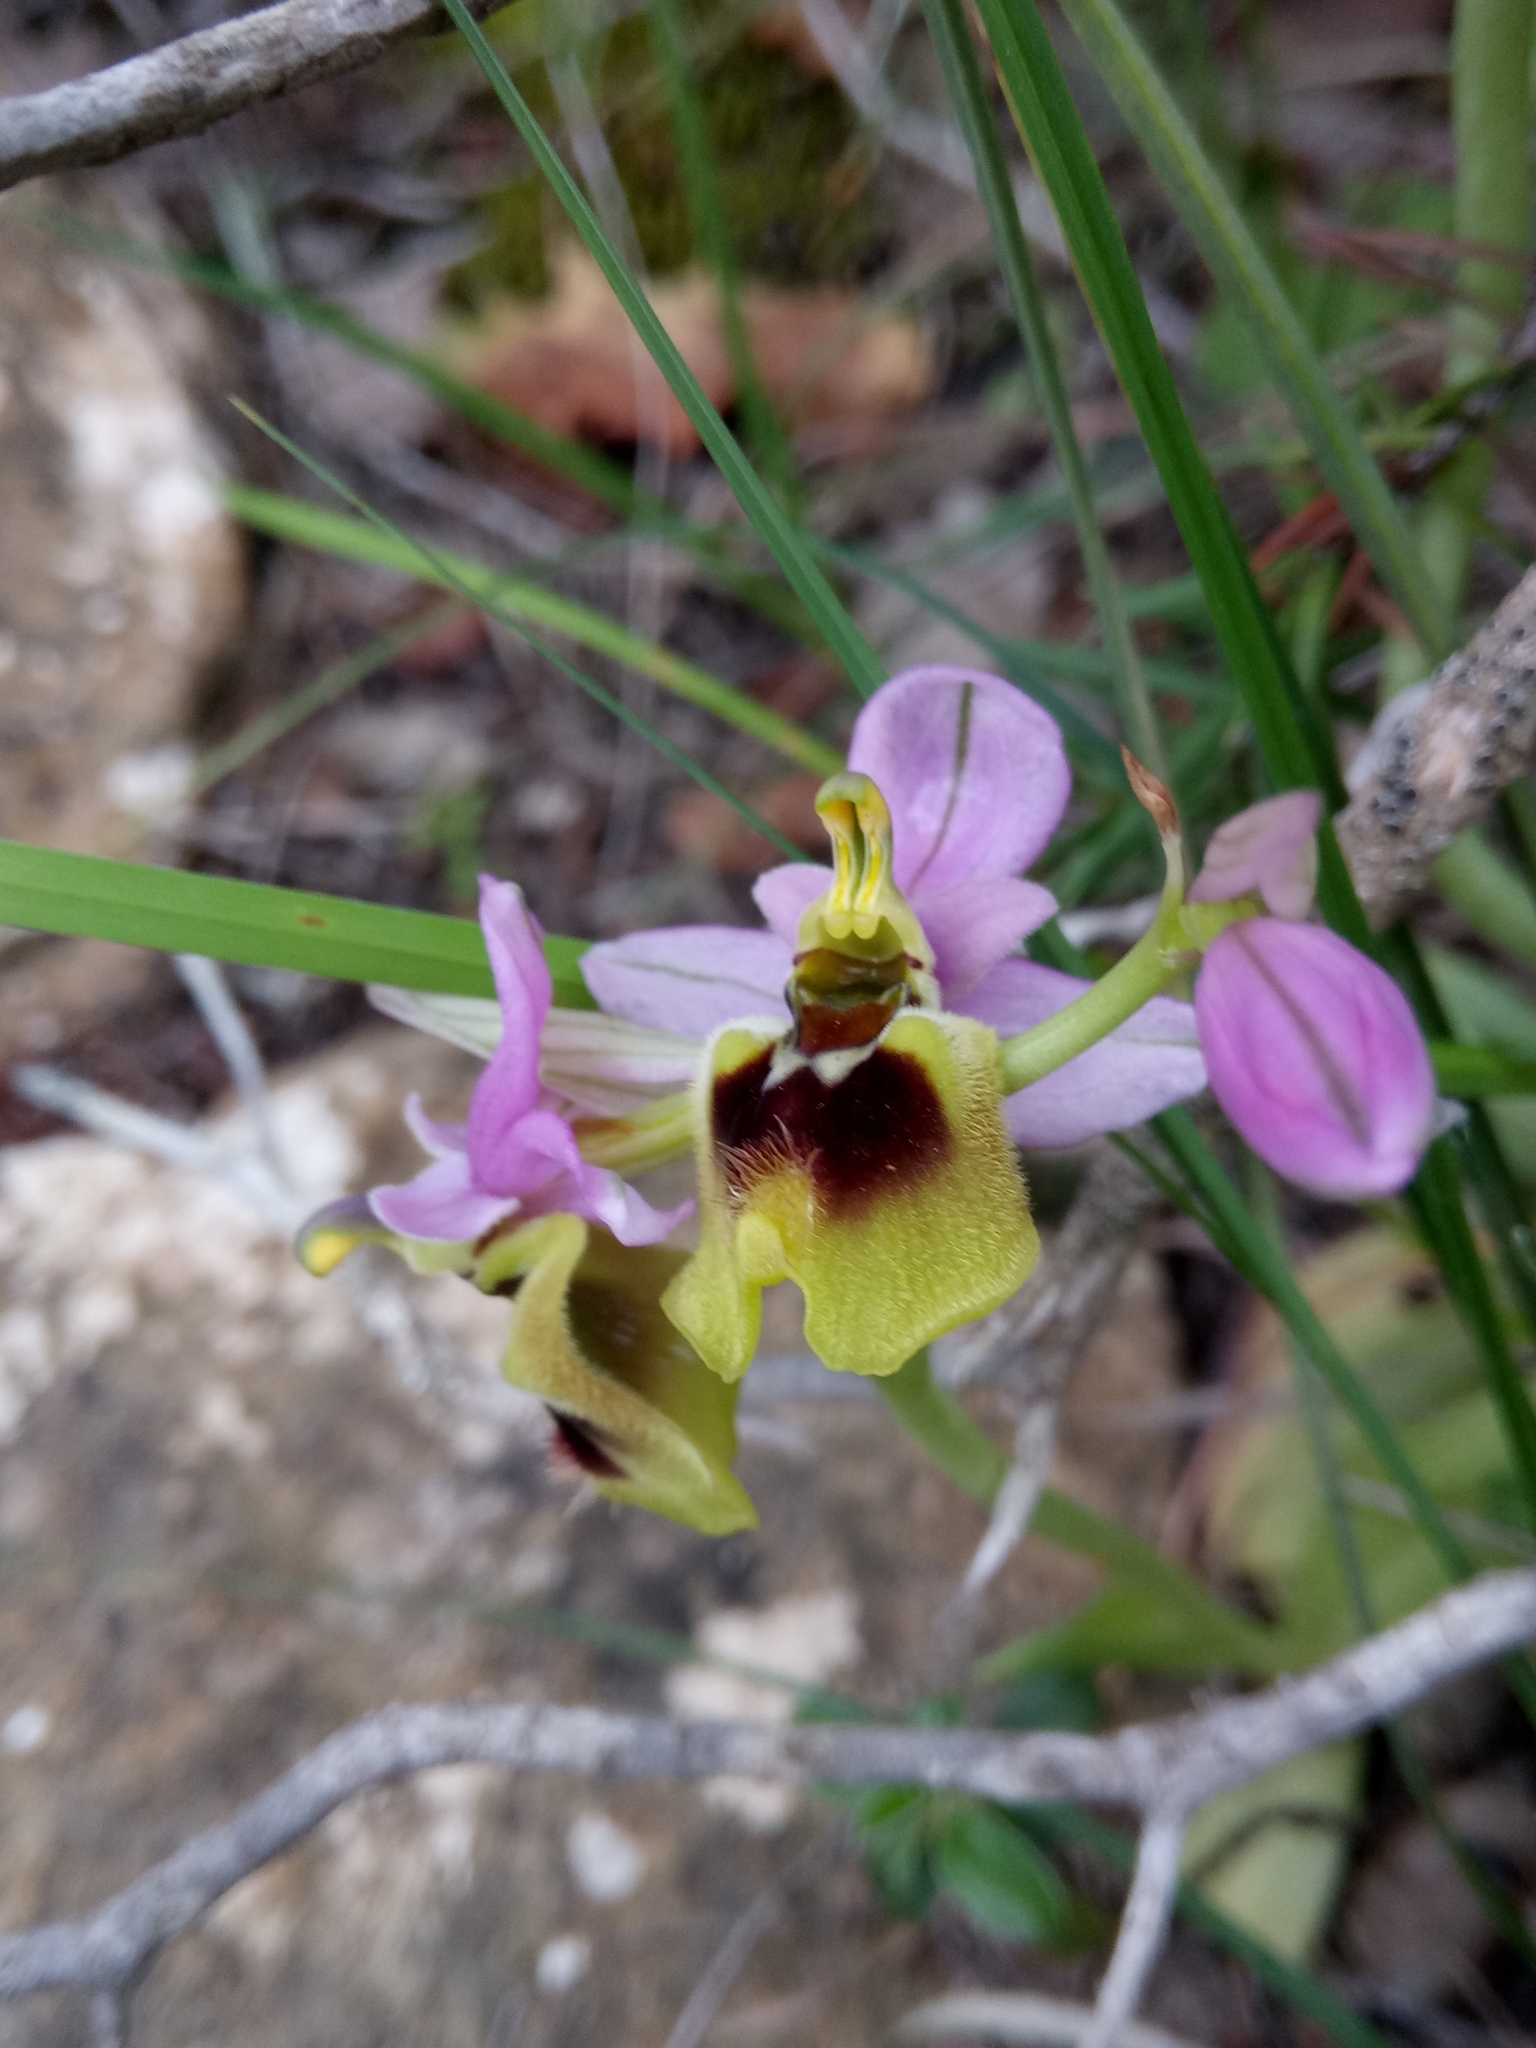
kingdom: Plantae
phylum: Tracheophyta
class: Liliopsida
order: Asparagales
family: Orchidaceae
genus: Ophrys
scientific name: Ophrys tenthredinifera
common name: Sawfly orchid
